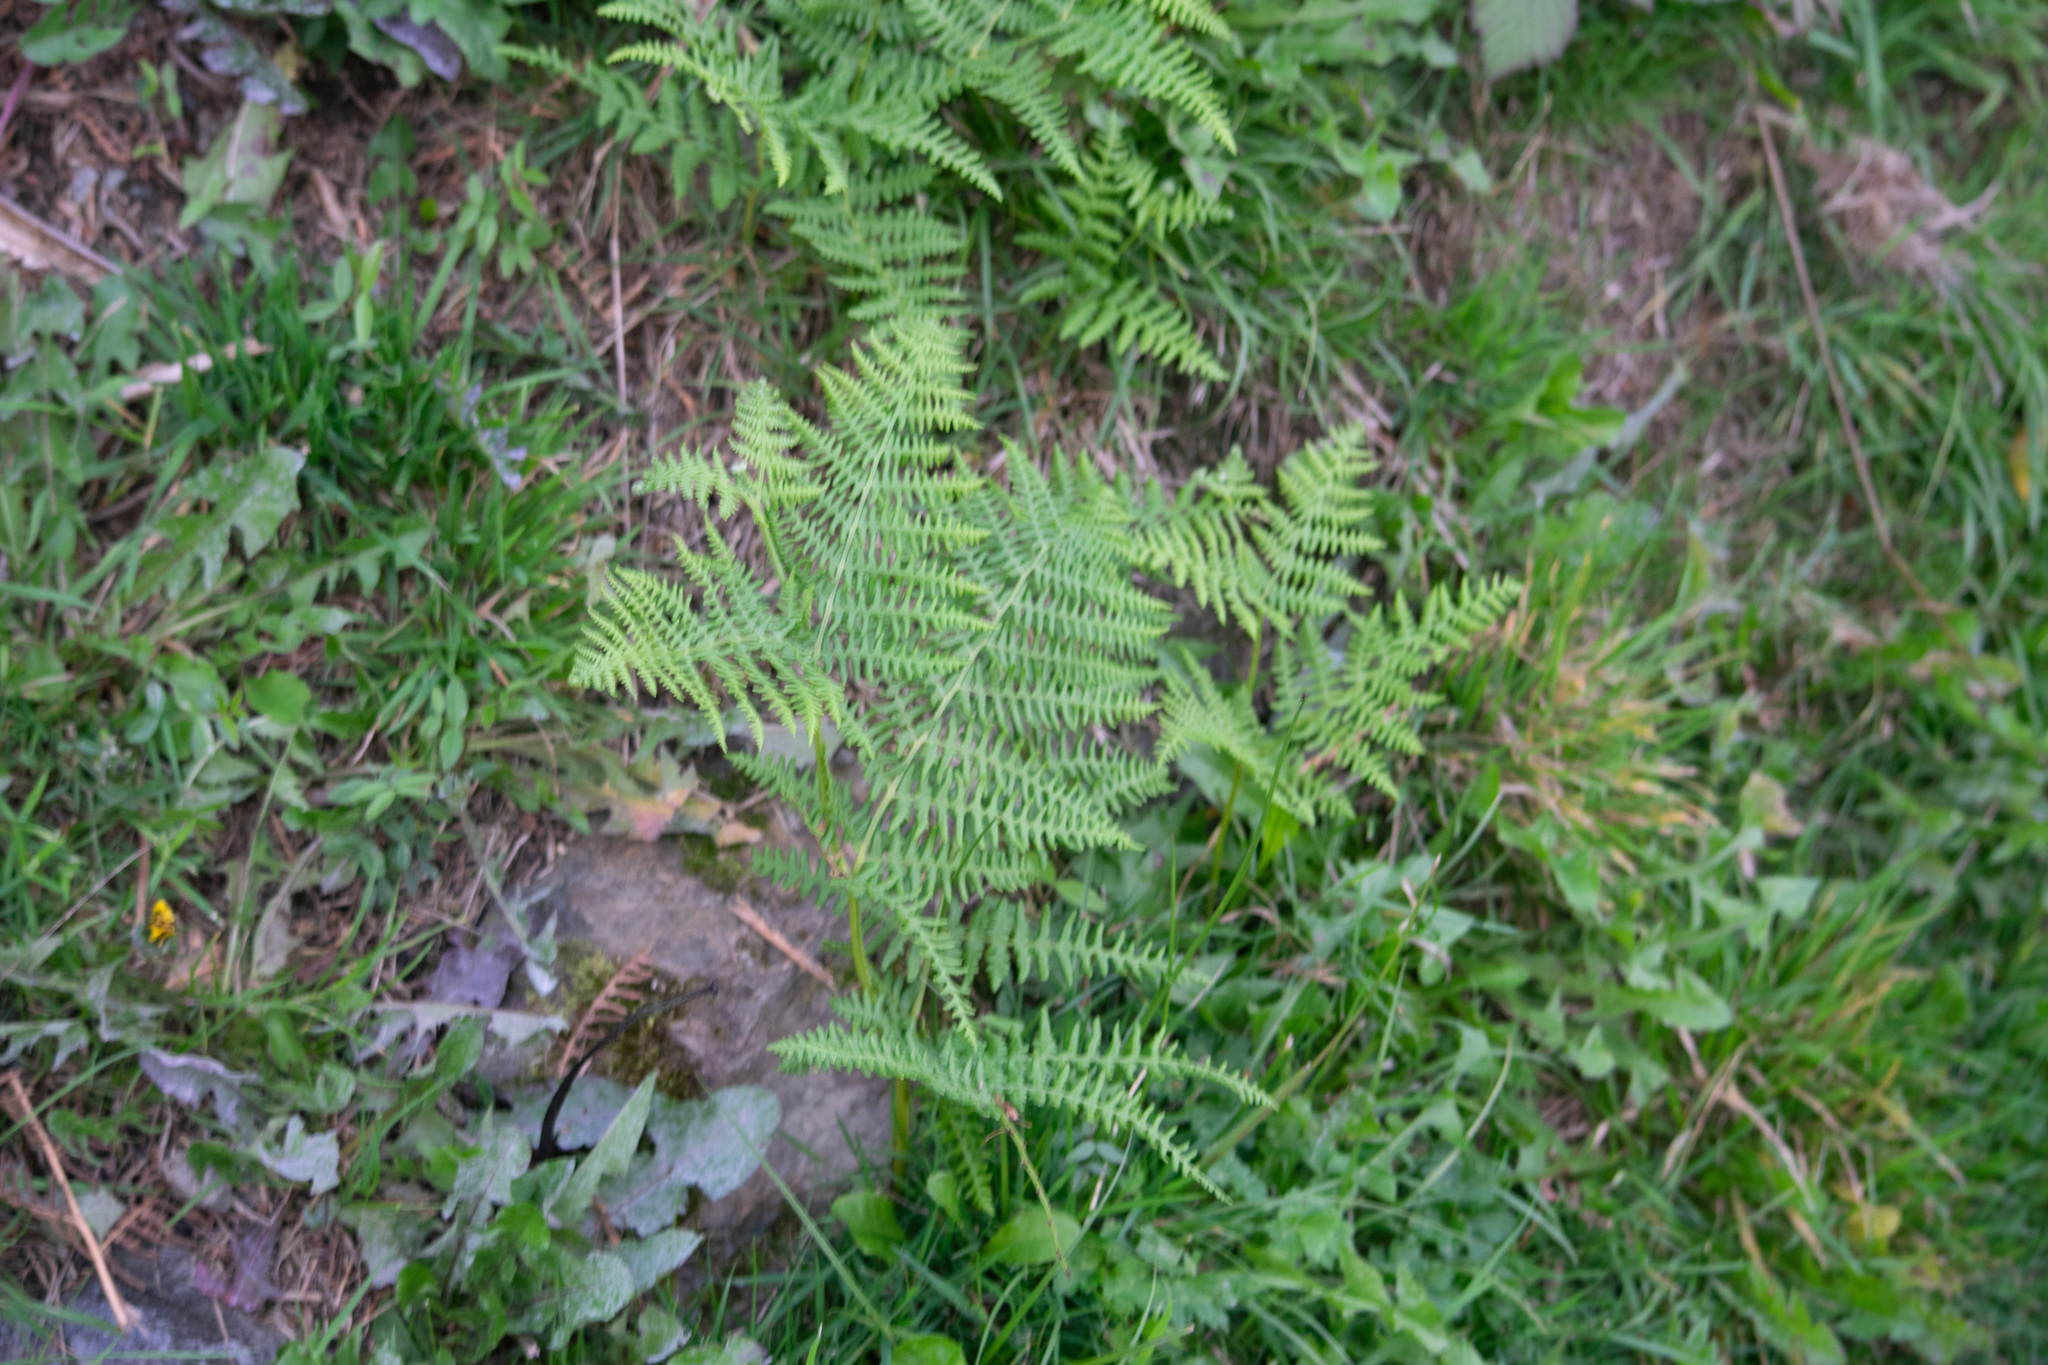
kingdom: Plantae
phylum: Tracheophyta
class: Polypodiopsida
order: Polypodiales
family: Dennstaedtiaceae
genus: Pteridium
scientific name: Pteridium aquilinum
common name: Bracken
